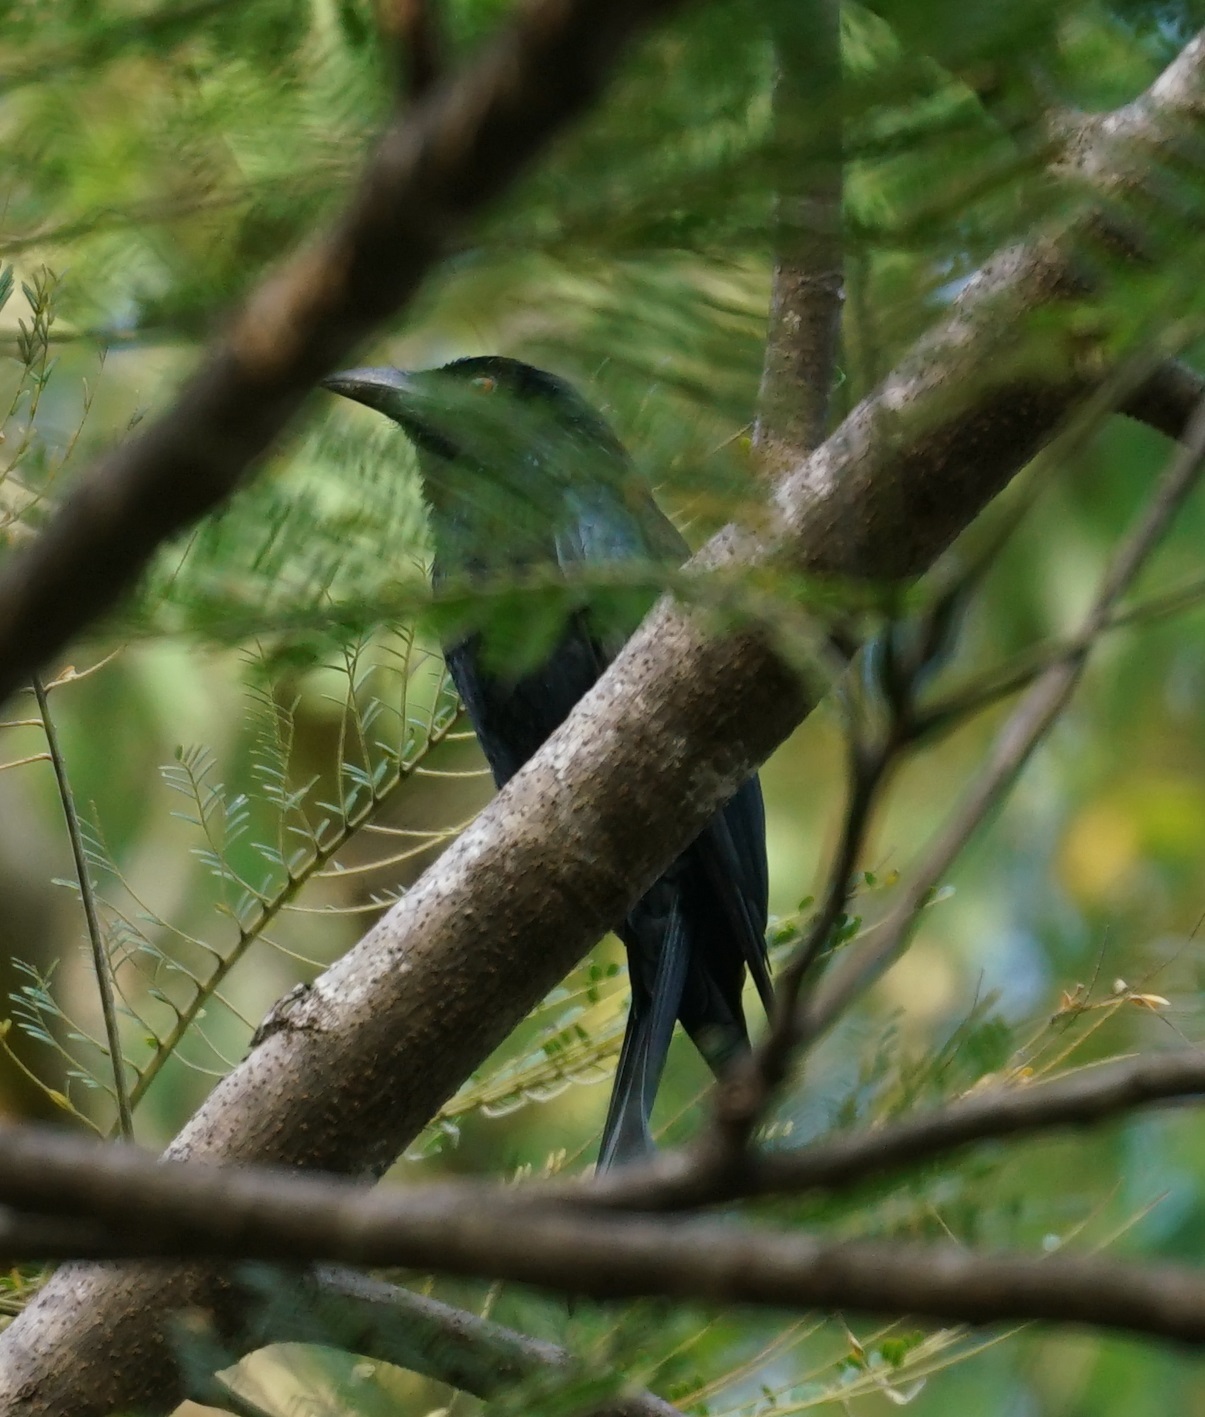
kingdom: Animalia
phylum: Chordata
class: Aves
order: Passeriformes
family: Dicruridae
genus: Dicrurus
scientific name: Dicrurus bracteatus
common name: Spangled drongo
